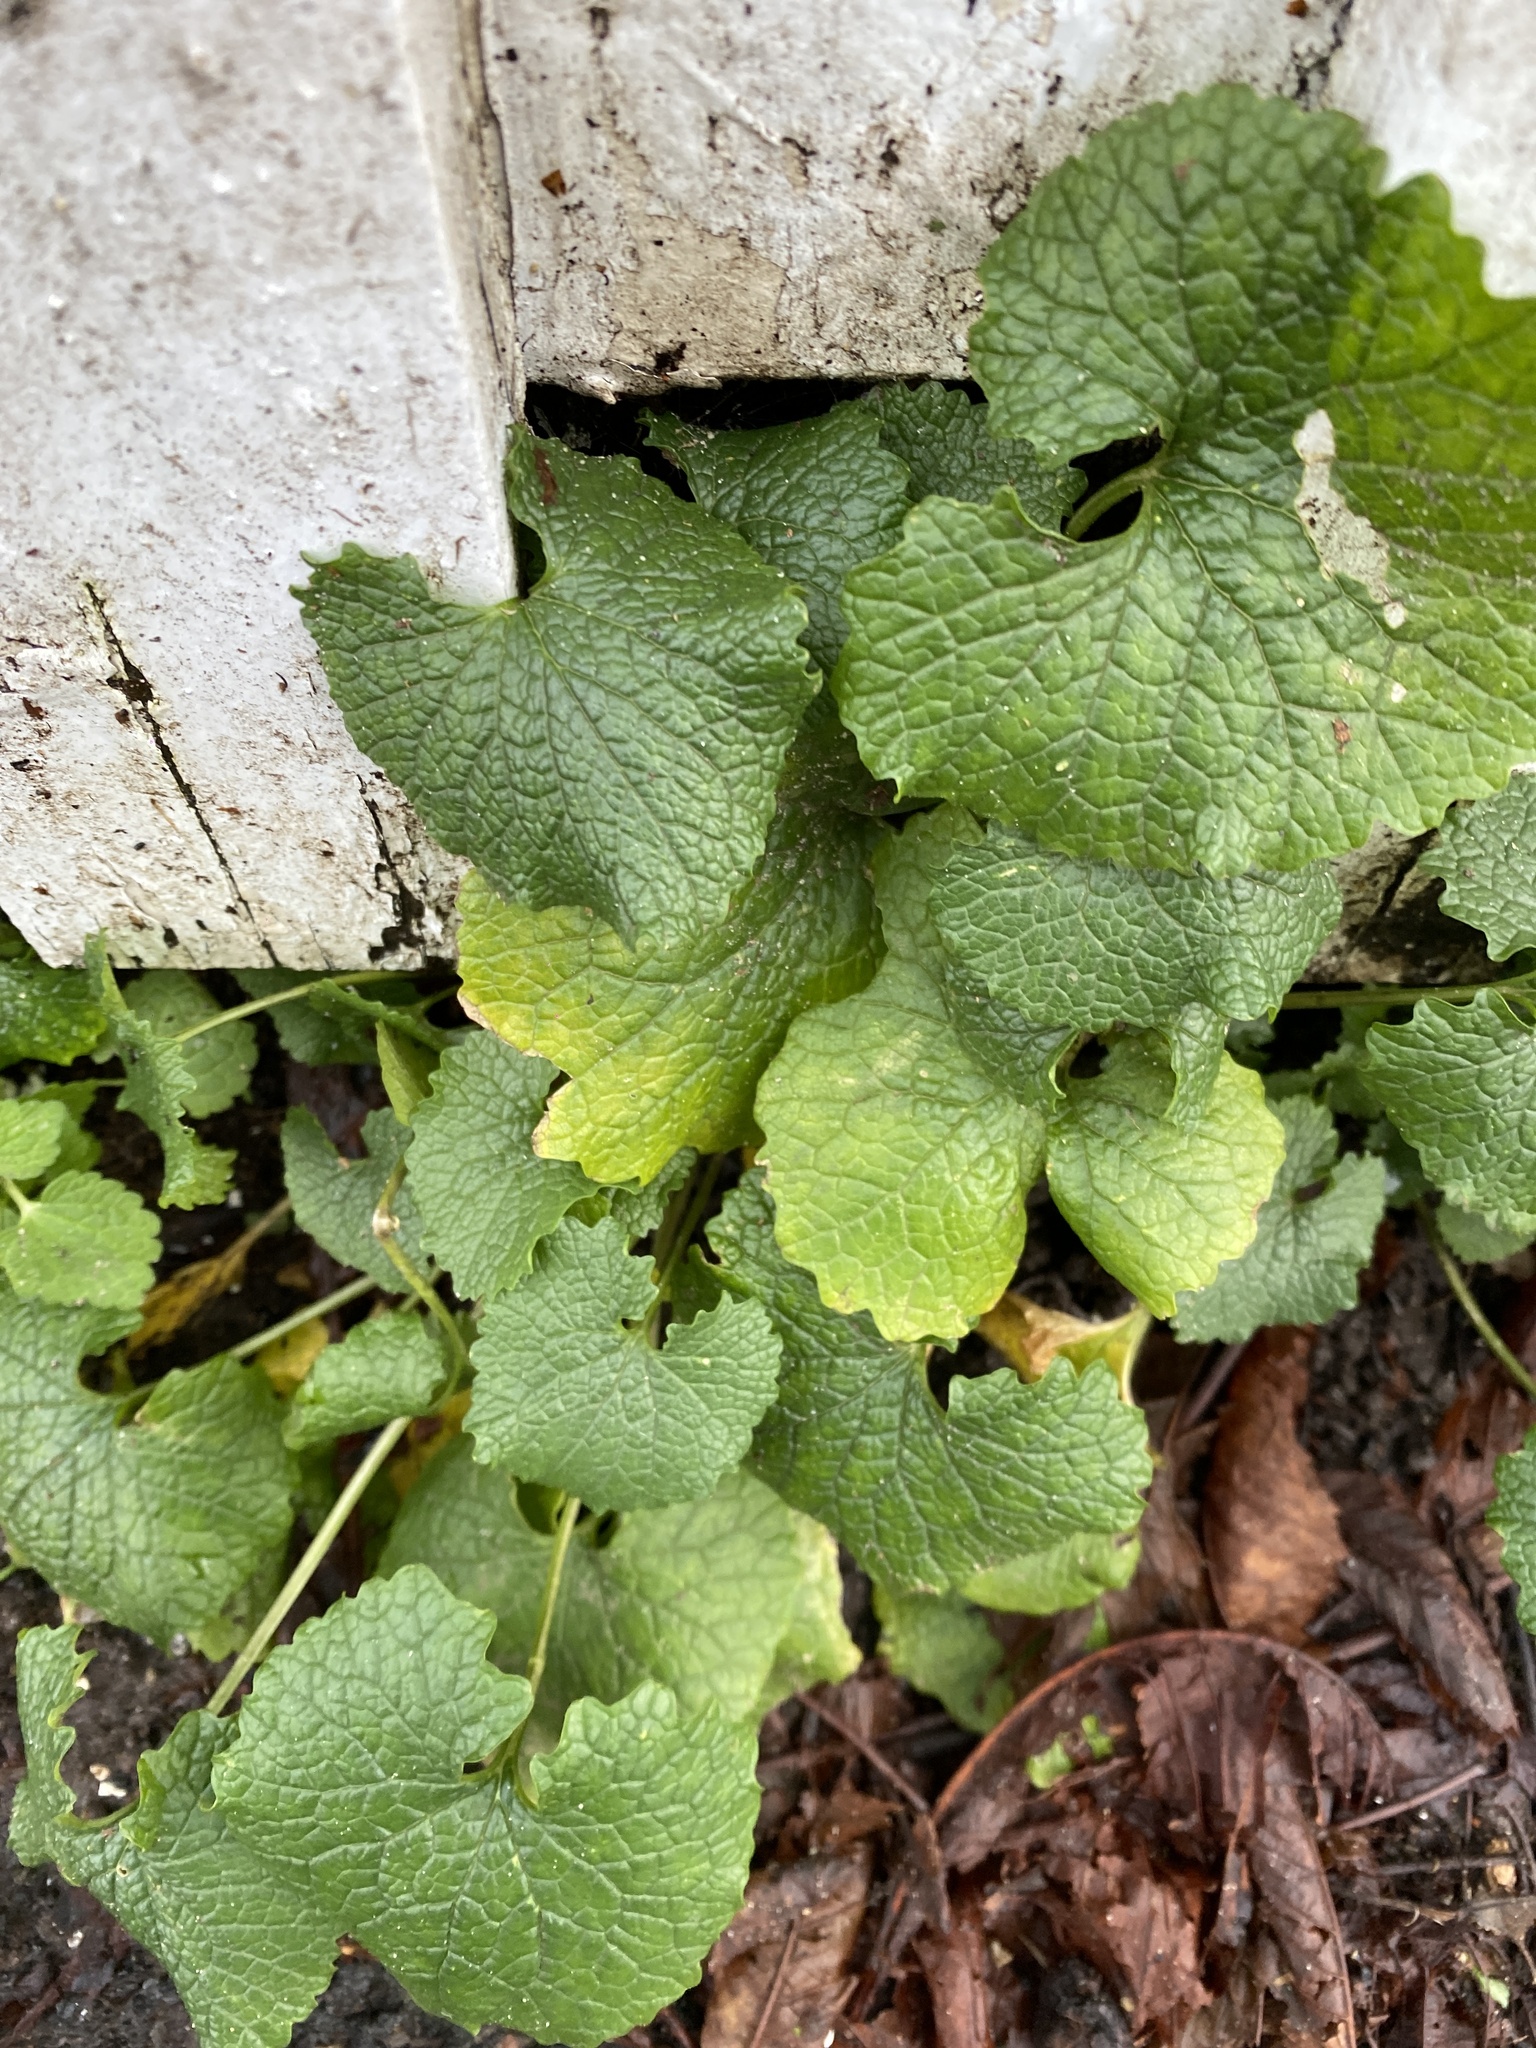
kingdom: Plantae
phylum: Tracheophyta
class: Magnoliopsida
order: Brassicales
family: Brassicaceae
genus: Alliaria
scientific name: Alliaria petiolata
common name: Garlic mustard
